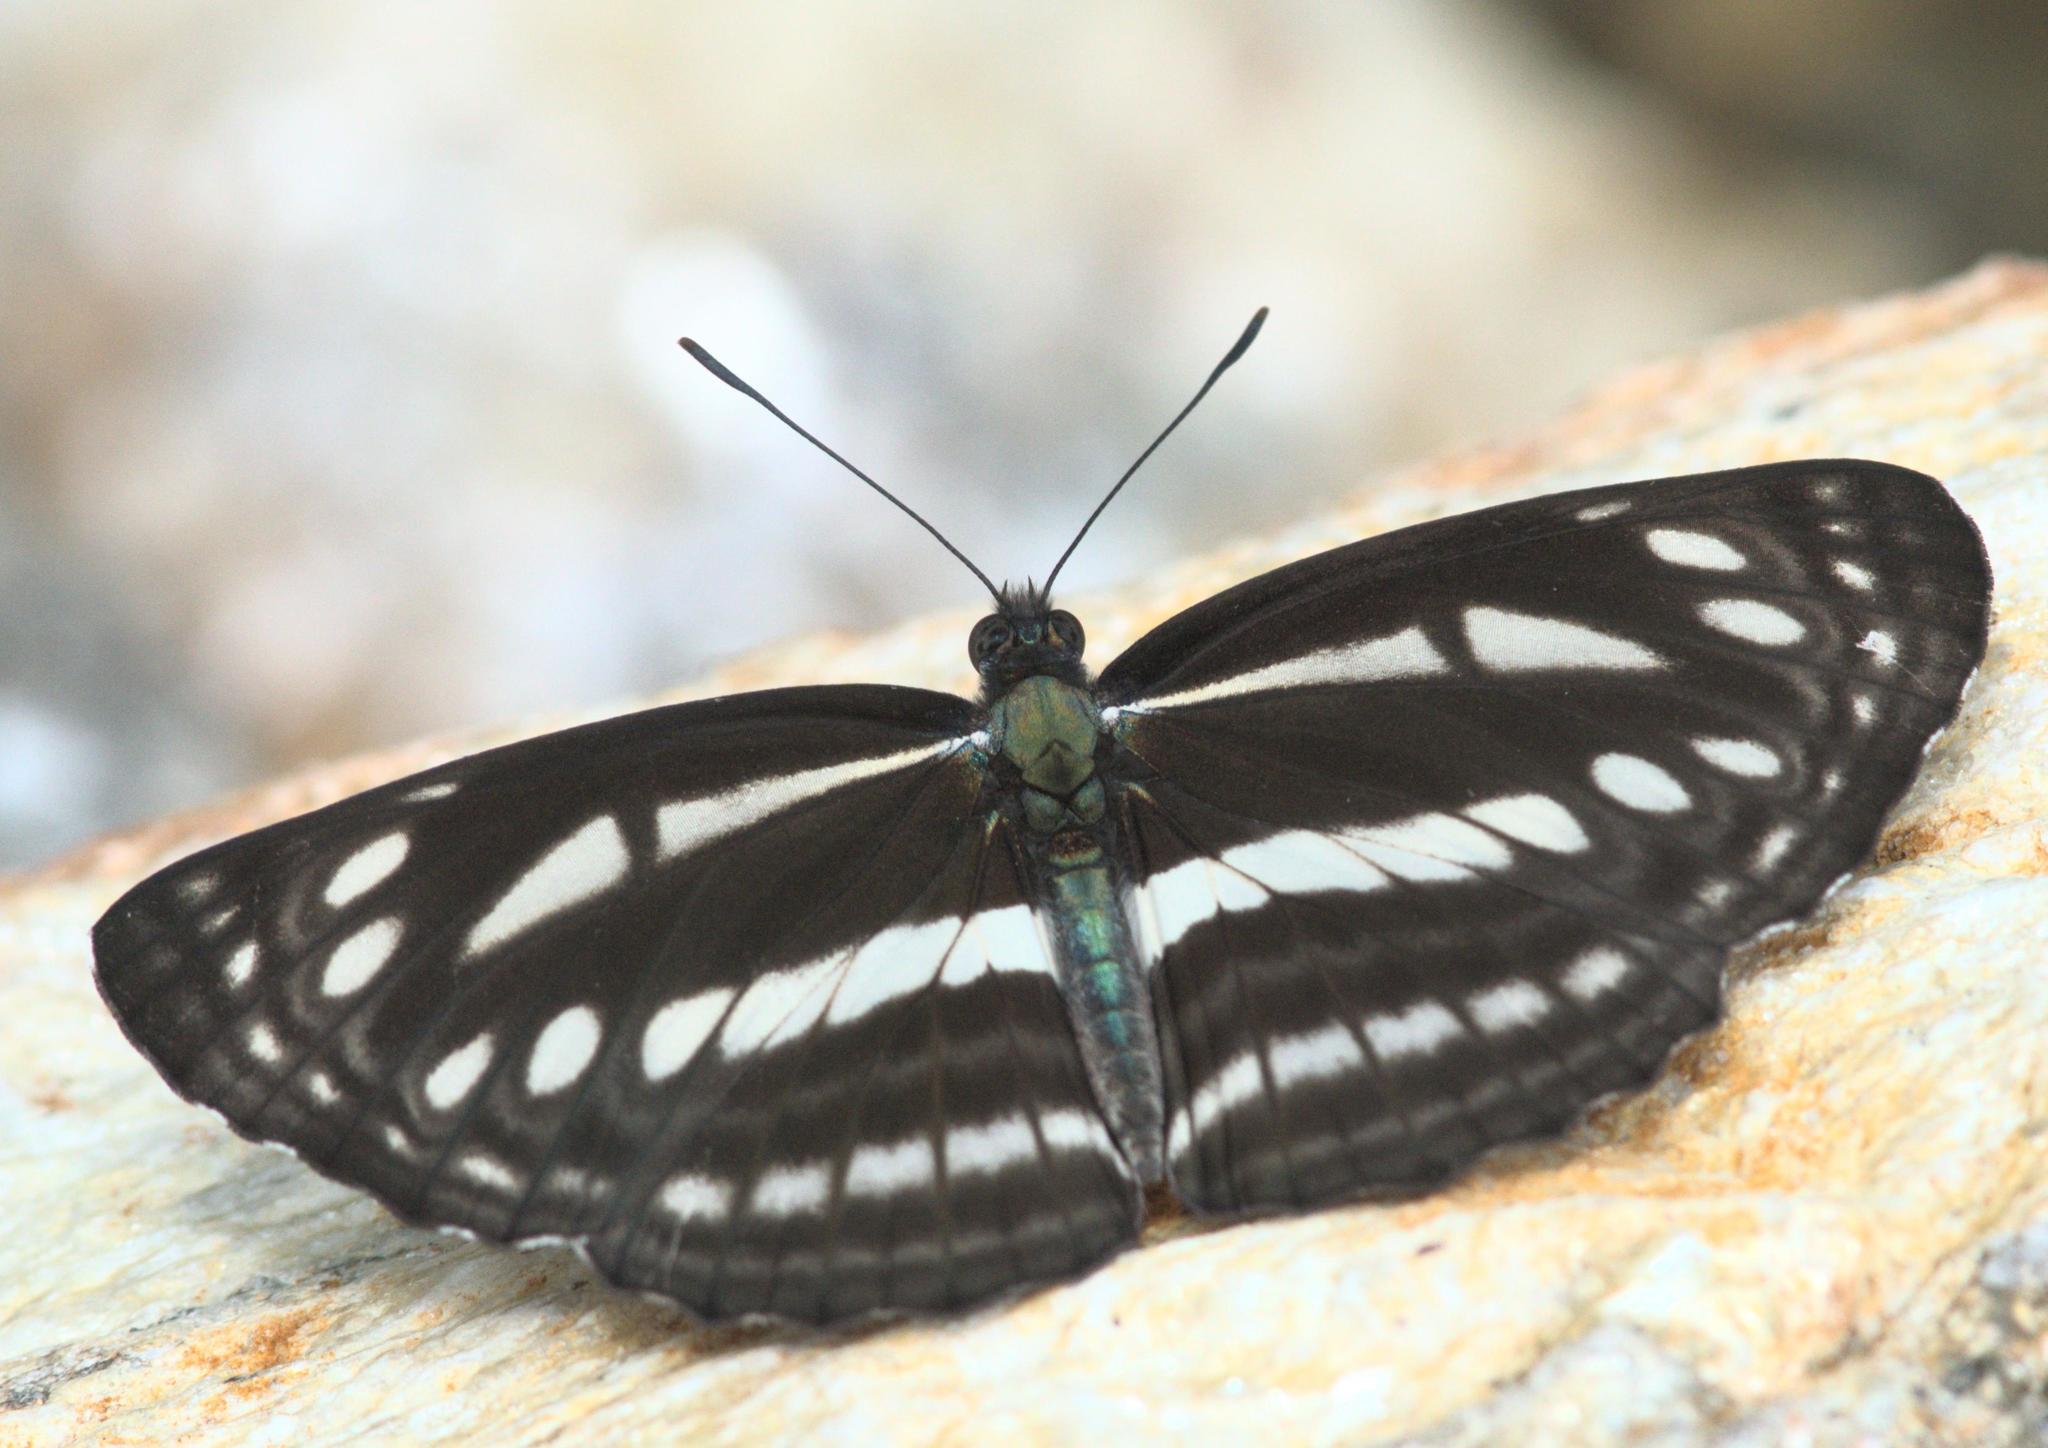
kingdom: Animalia
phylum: Arthropoda
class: Insecta
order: Lepidoptera
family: Nymphalidae
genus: Neptis
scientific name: Neptis soma
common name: Cream-spotted sailor
